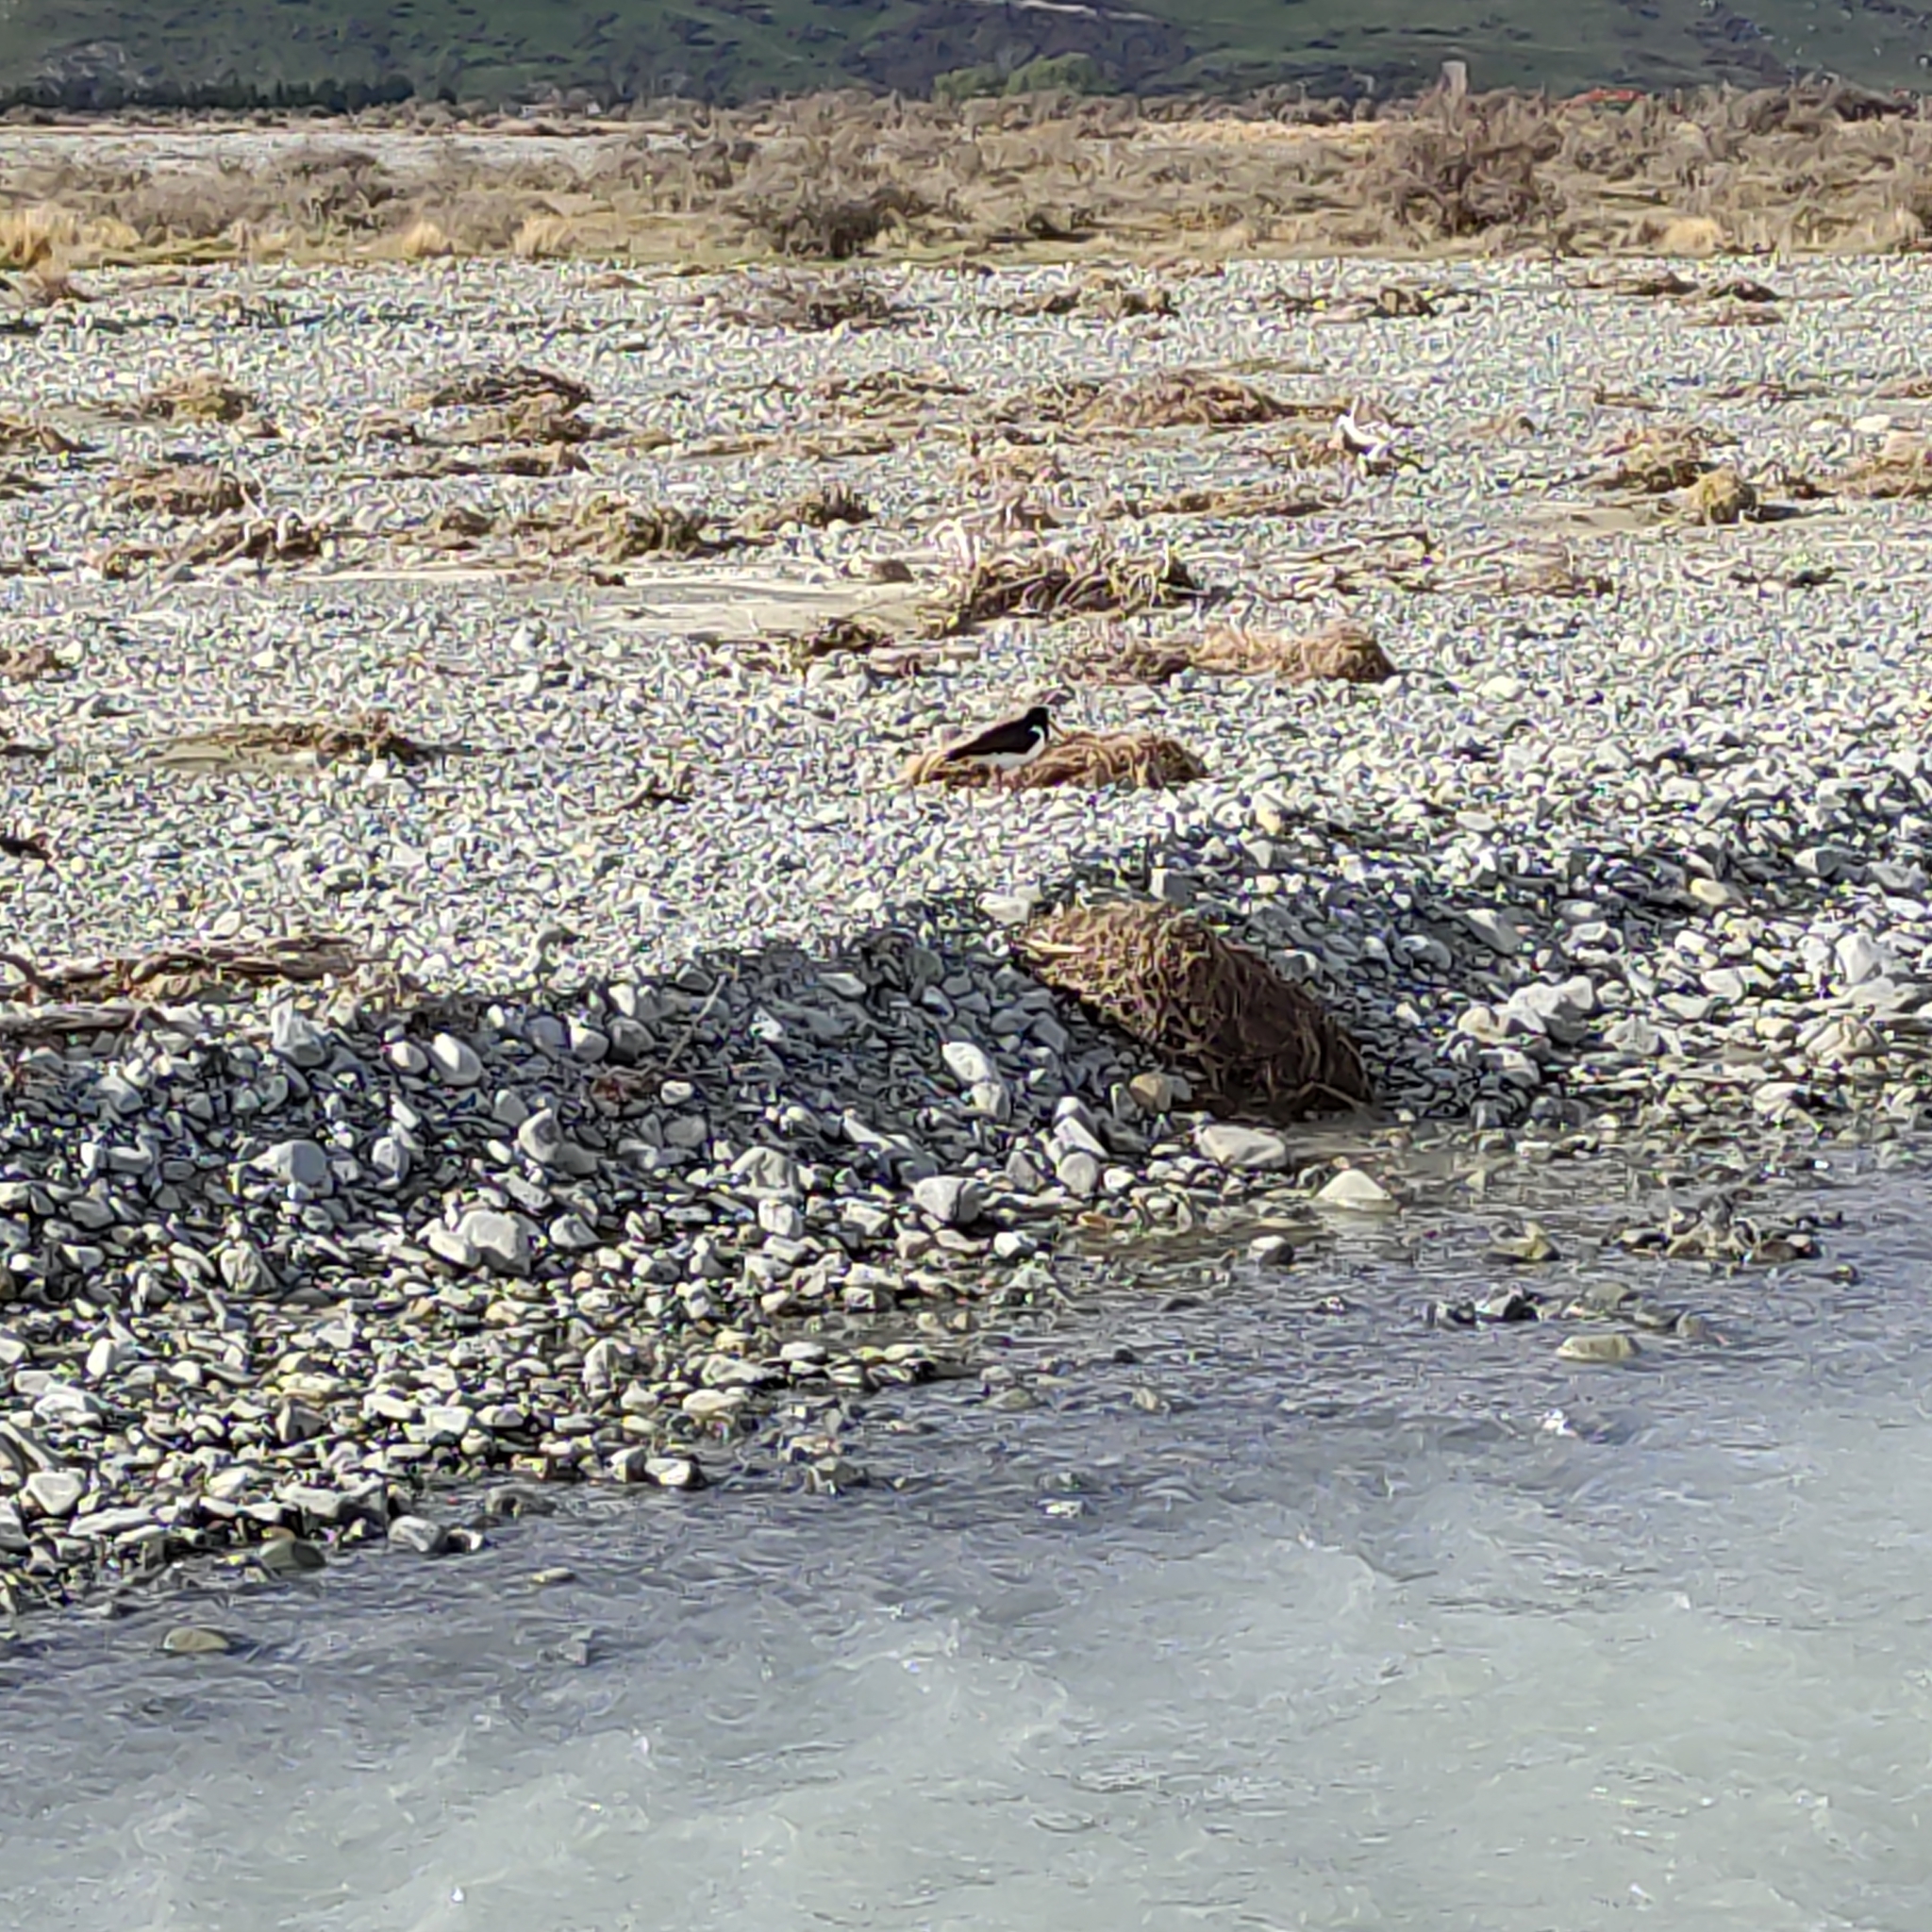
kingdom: Animalia
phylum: Chordata
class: Aves
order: Charadriiformes
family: Haematopodidae
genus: Haematopus
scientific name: Haematopus finschi
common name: South island oystercatcher
